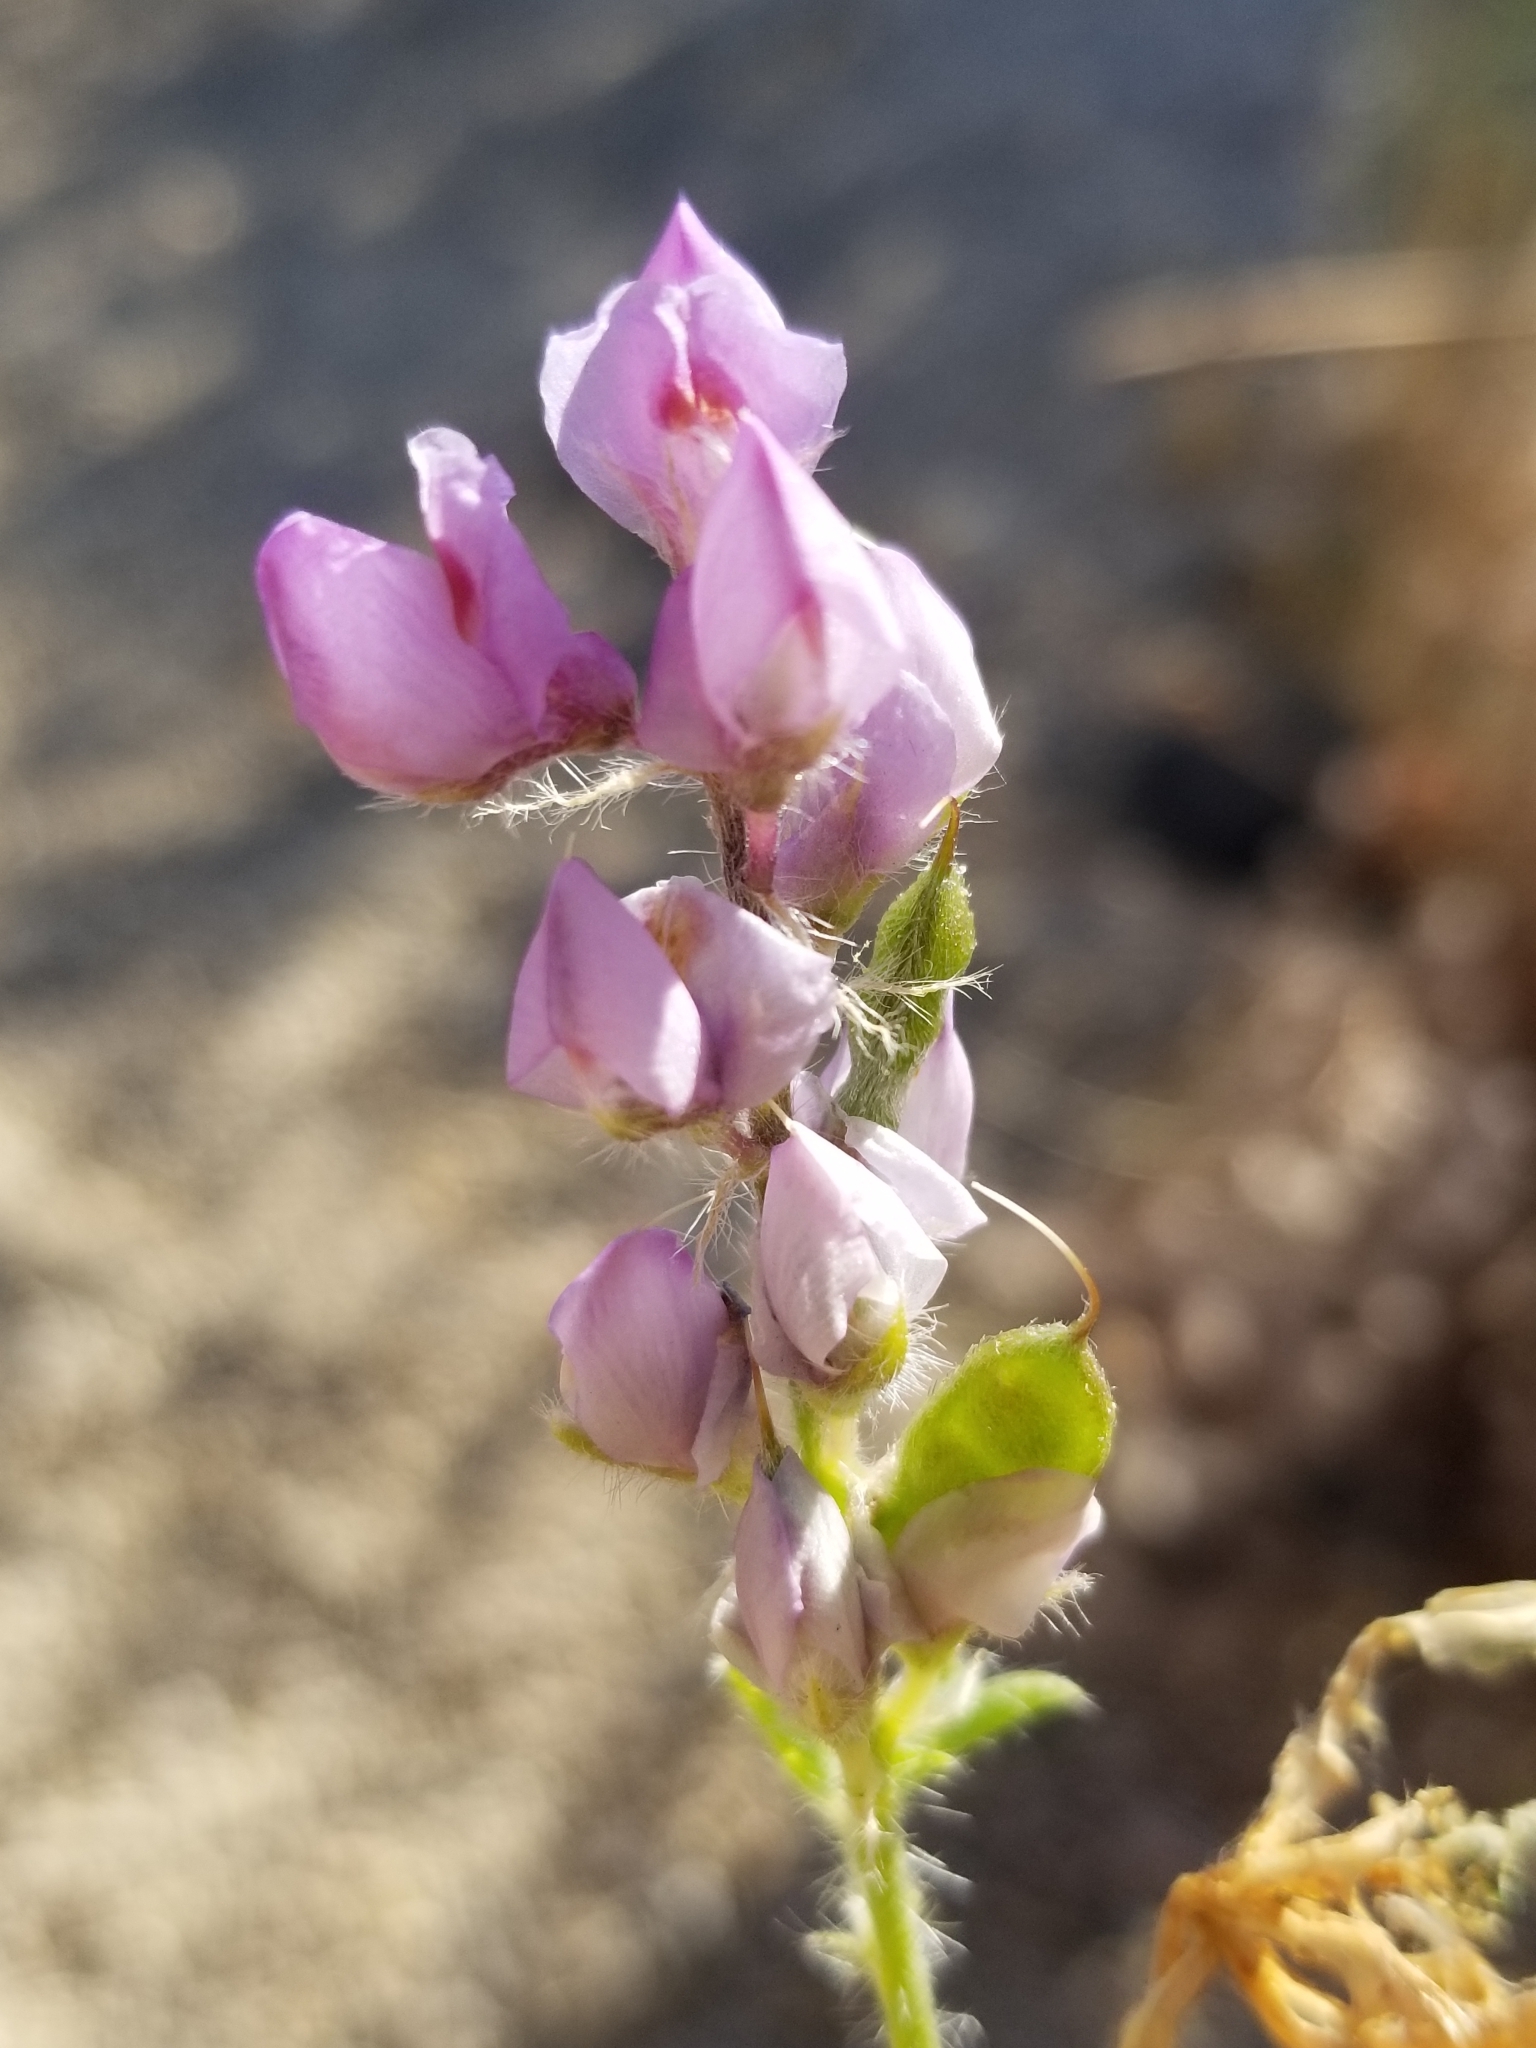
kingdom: Plantae
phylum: Tracheophyta
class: Magnoliopsida
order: Fabales
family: Fabaceae
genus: Lupinus
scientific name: Lupinus arizonicus
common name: Arizona lupine
